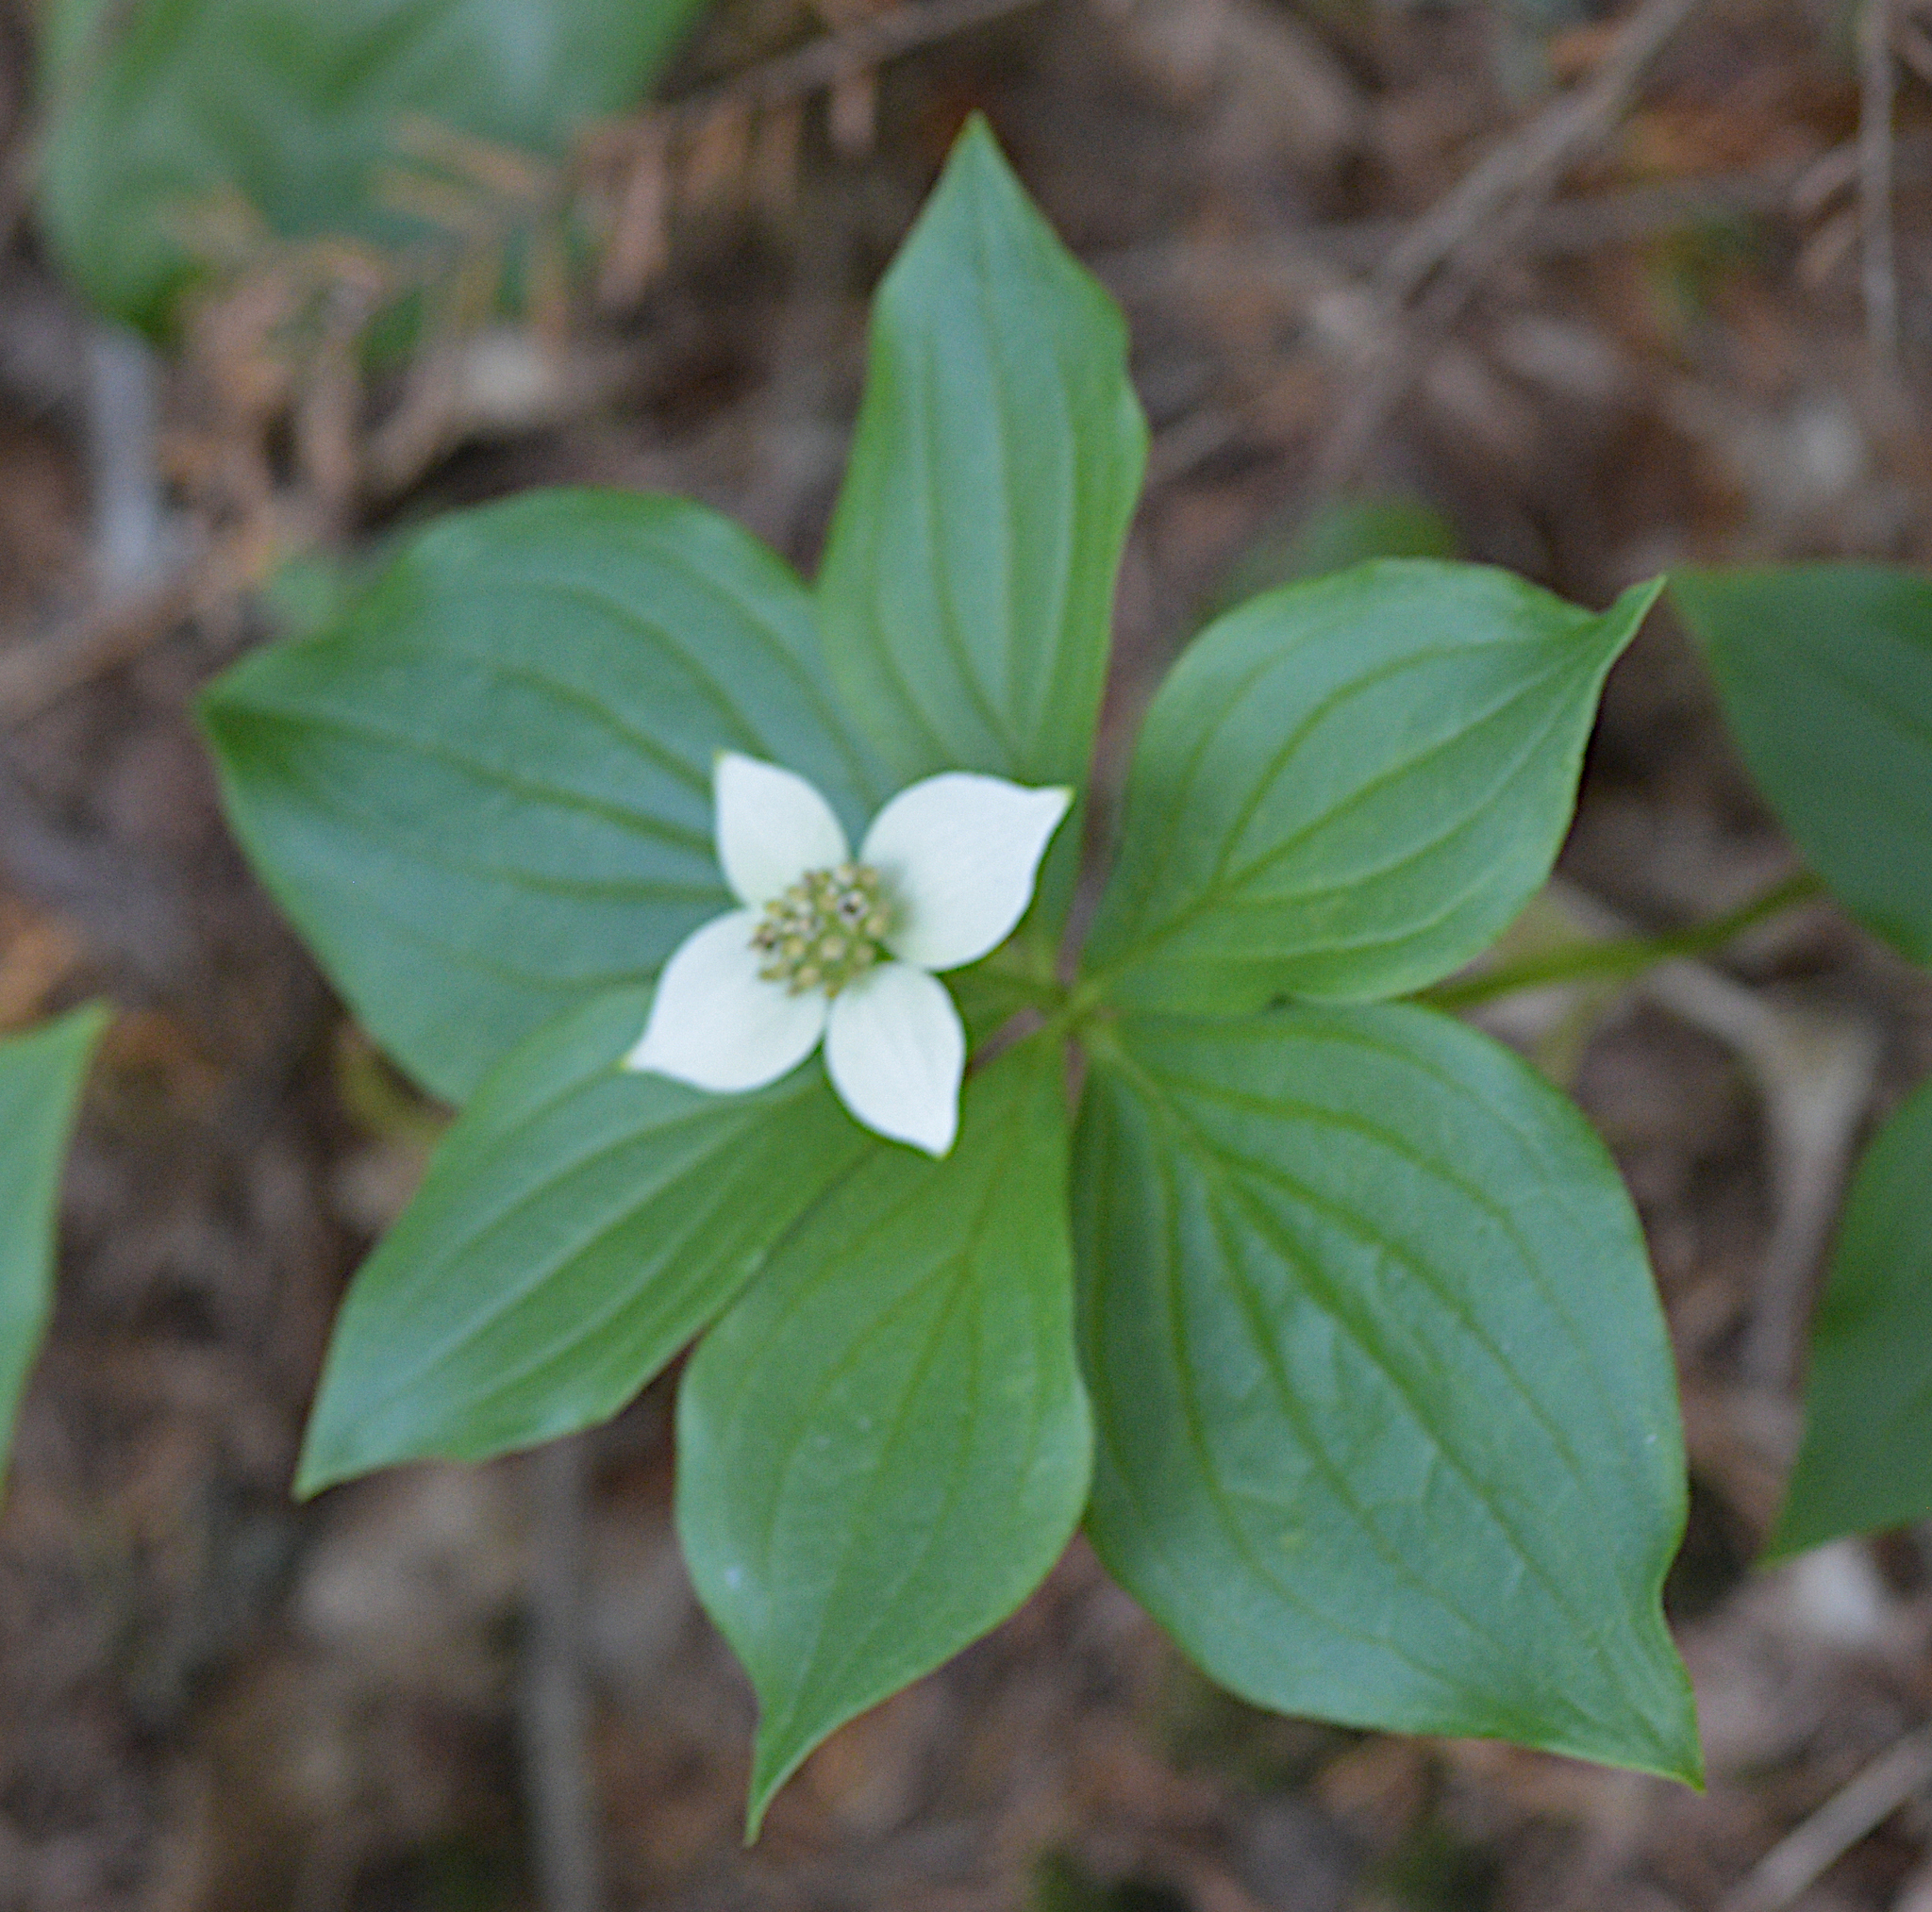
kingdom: Plantae
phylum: Tracheophyta
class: Magnoliopsida
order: Cornales
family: Cornaceae
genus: Cornus
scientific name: Cornus canadensis
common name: Creeping dogwood
